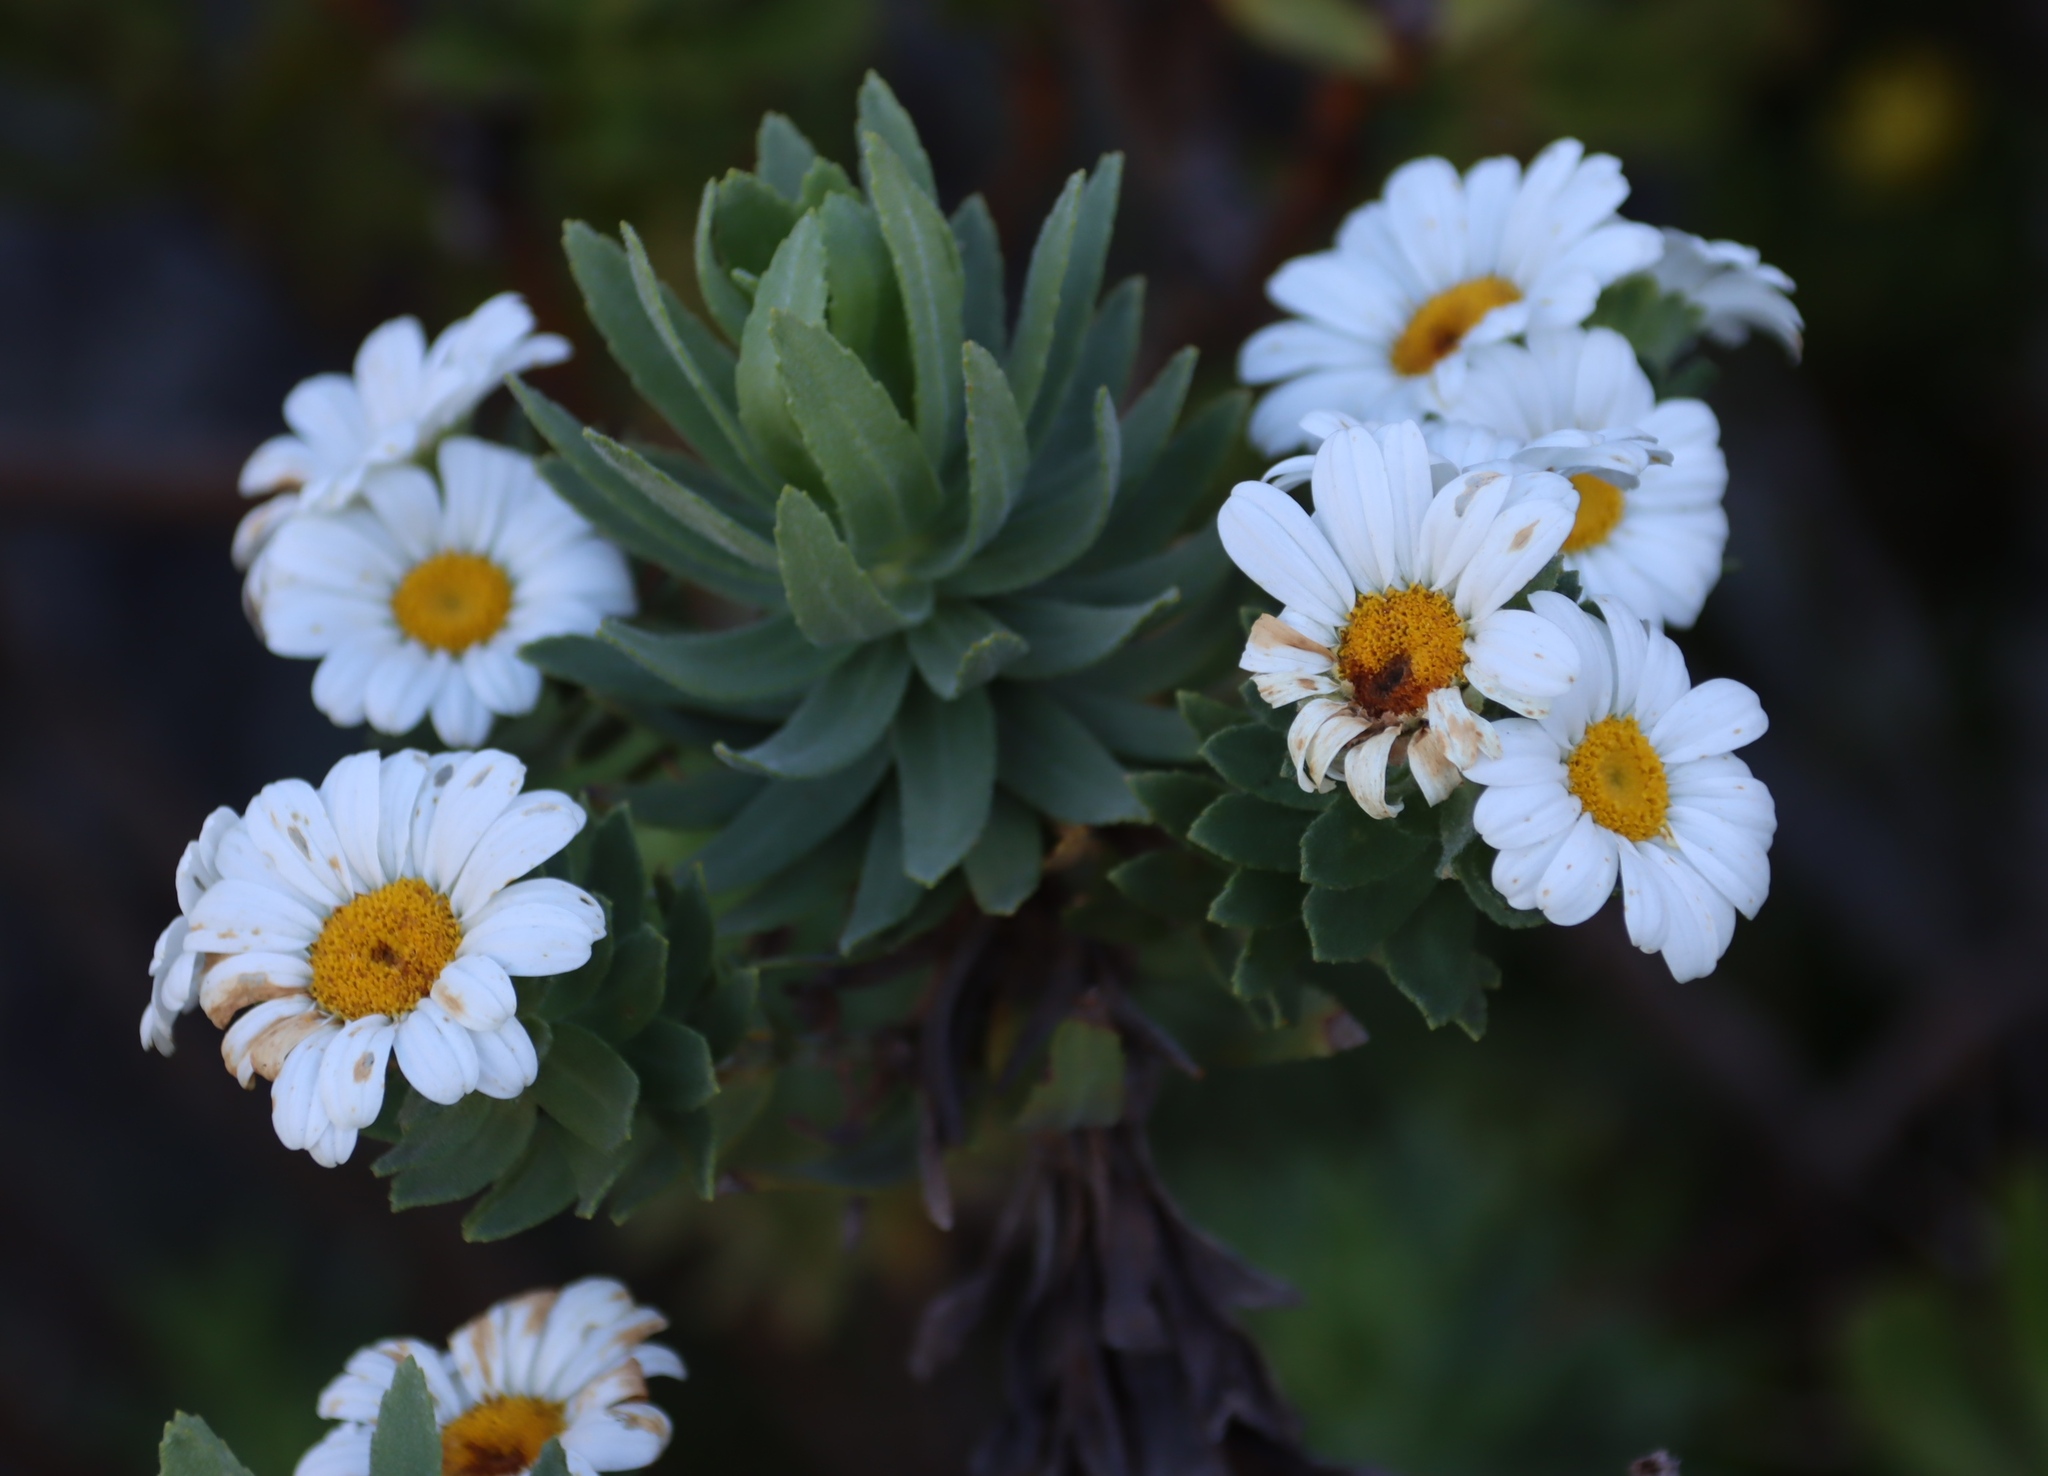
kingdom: Plantae
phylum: Tracheophyta
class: Magnoliopsida
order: Asterales
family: Asteraceae
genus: Osmitopsis
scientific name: Osmitopsis asteriscoides
